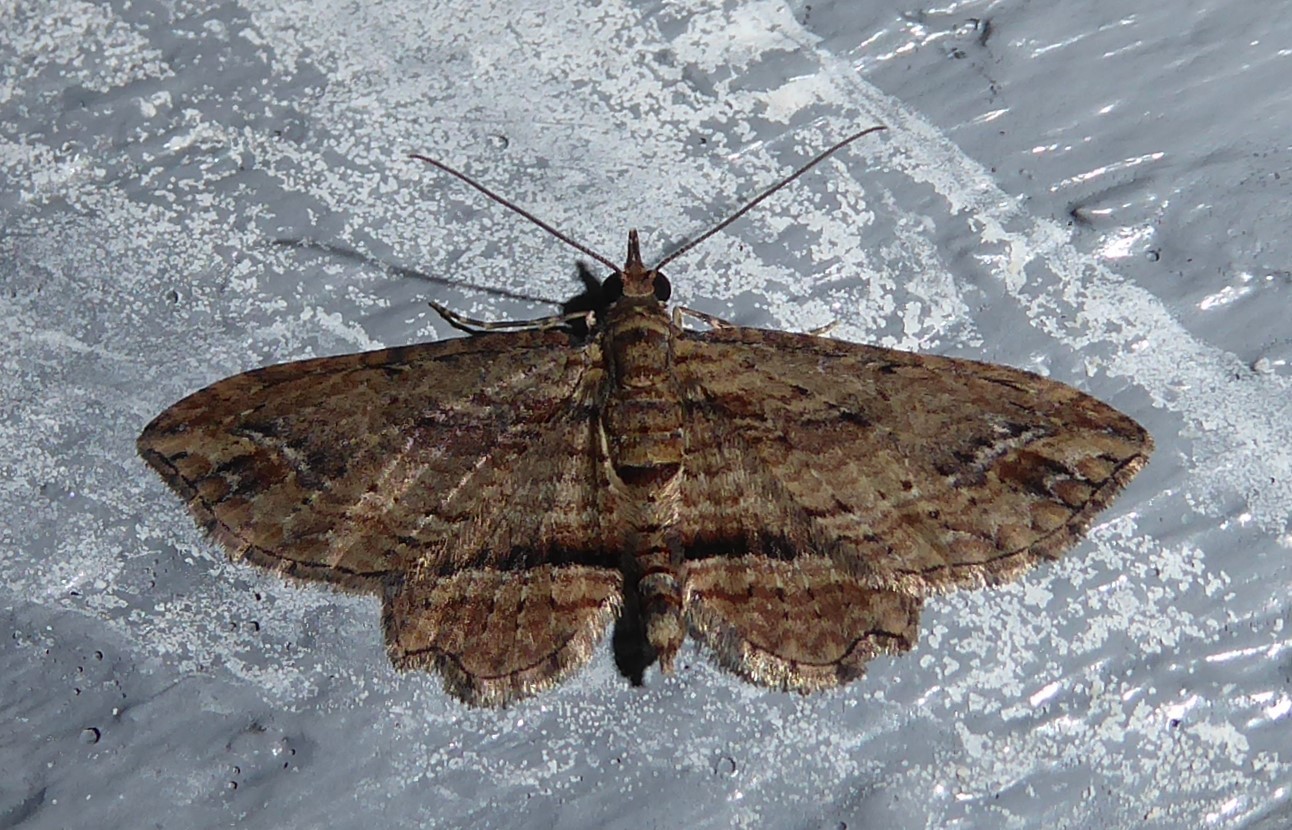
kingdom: Animalia
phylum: Arthropoda
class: Insecta
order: Lepidoptera
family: Geometridae
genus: Chloroclystis
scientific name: Chloroclystis filata
